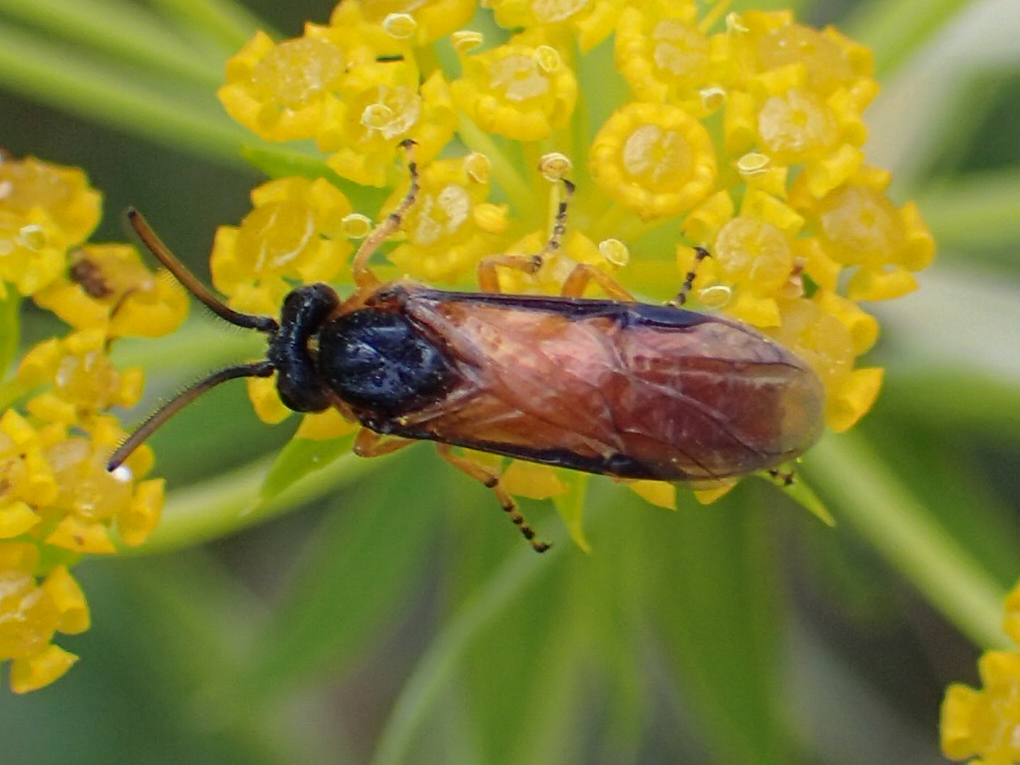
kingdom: Animalia
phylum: Arthropoda
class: Insecta
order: Hymenoptera
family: Argidae
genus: Arge
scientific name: Arge ochropus
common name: Argid sawfly
